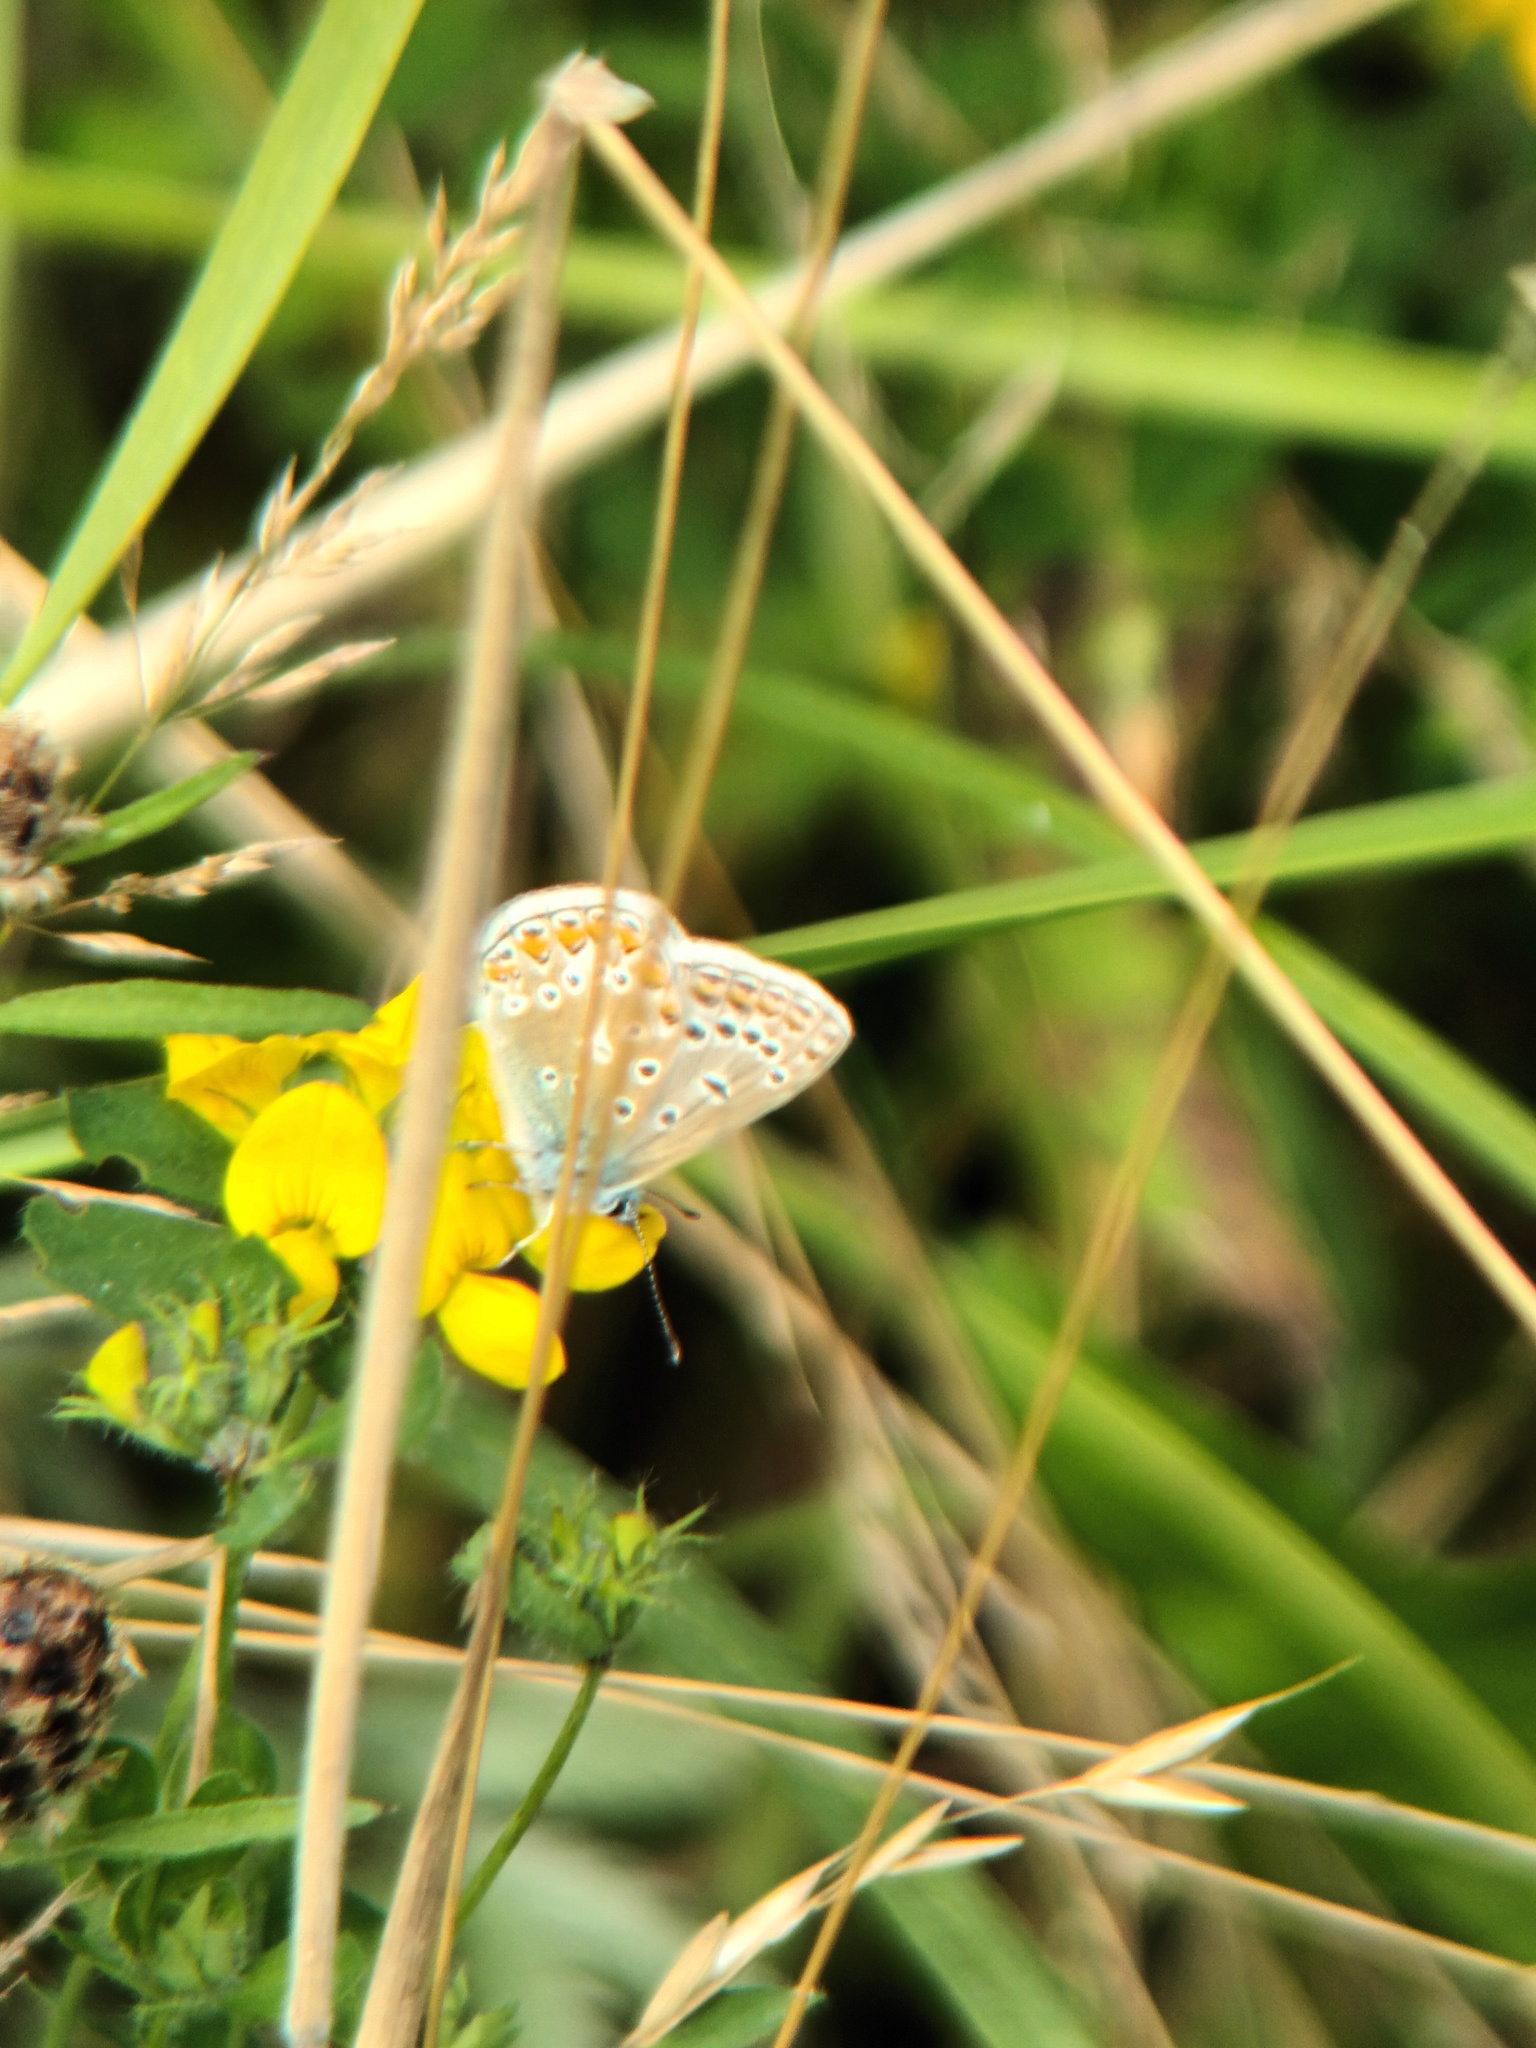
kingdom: Animalia
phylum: Arthropoda
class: Insecta
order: Lepidoptera
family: Lycaenidae
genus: Polyommatus
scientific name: Polyommatus icarus
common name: Common blue
